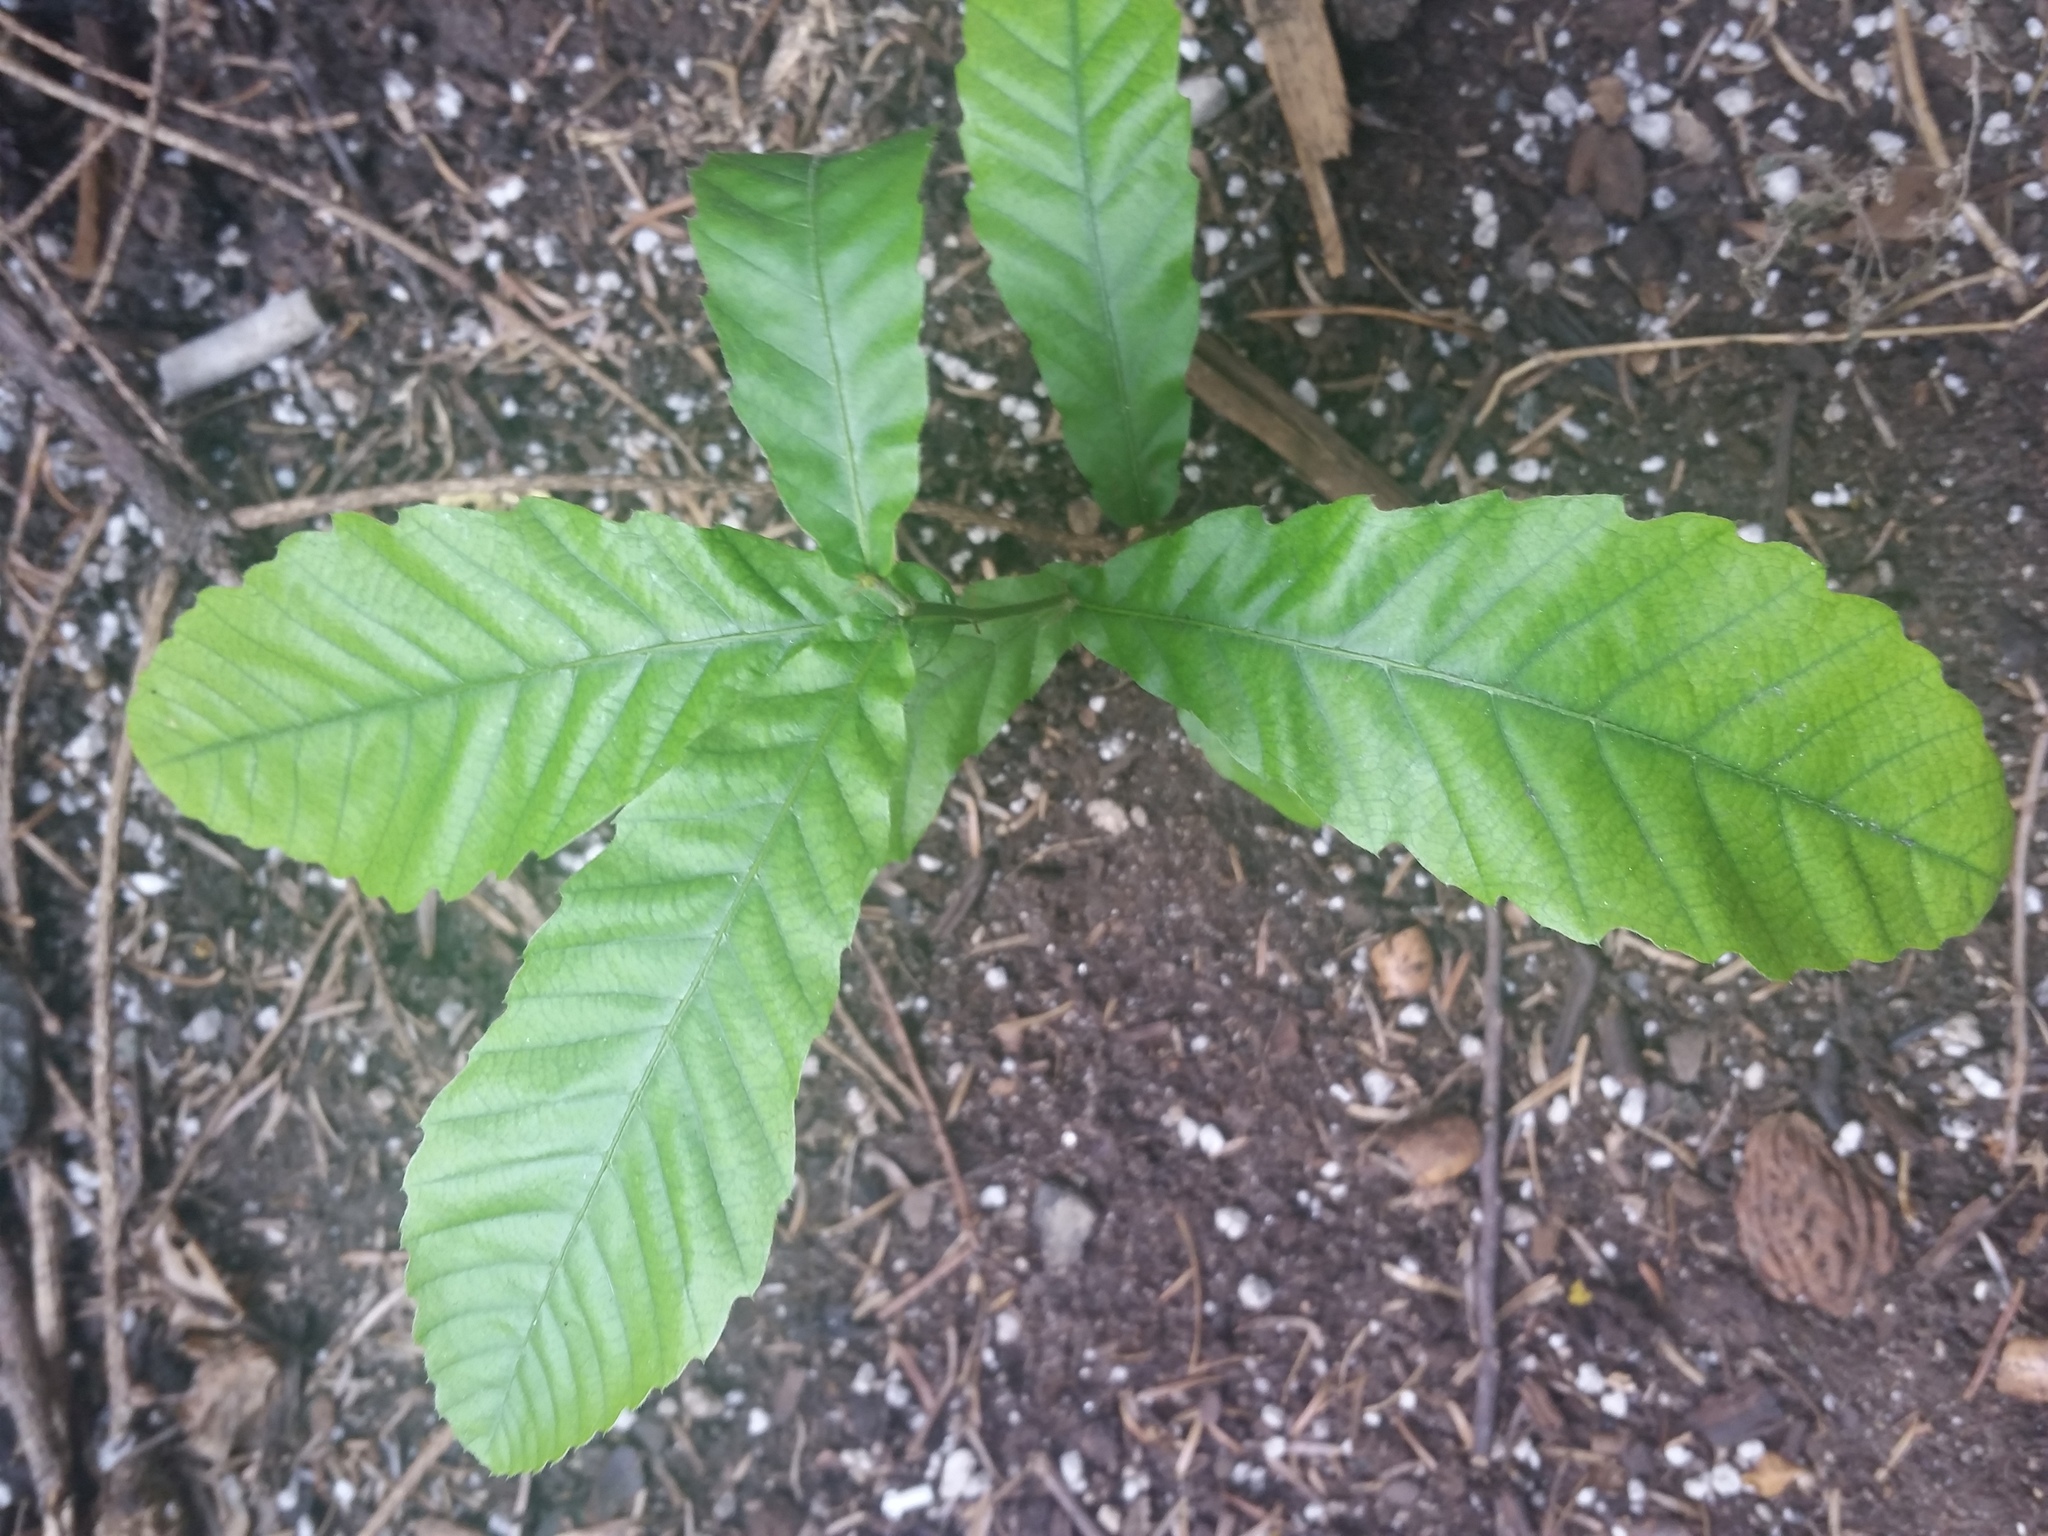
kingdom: Plantae
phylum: Tracheophyta
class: Magnoliopsida
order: Fagales
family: Fagaceae
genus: Quercus
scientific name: Quercus acutissima
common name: Sawtooth oak
